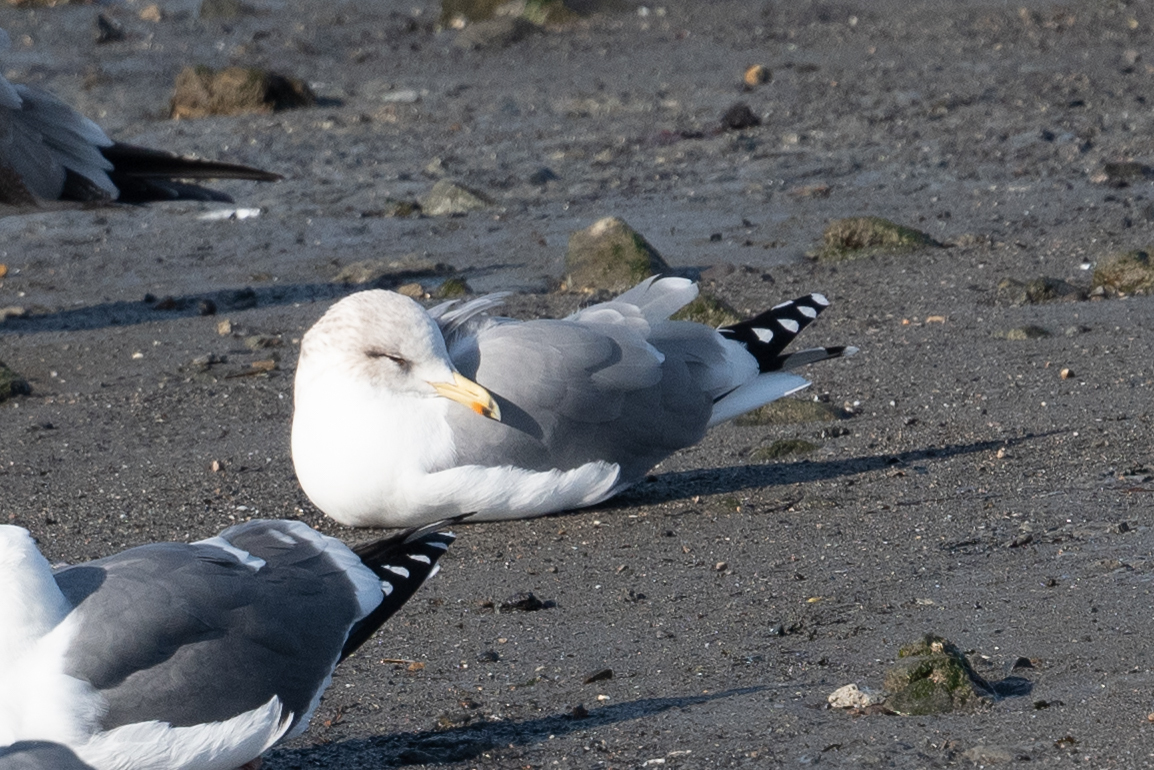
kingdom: Animalia
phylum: Chordata
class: Aves
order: Charadriiformes
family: Laridae
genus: Larus
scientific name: Larus californicus
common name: California gull
